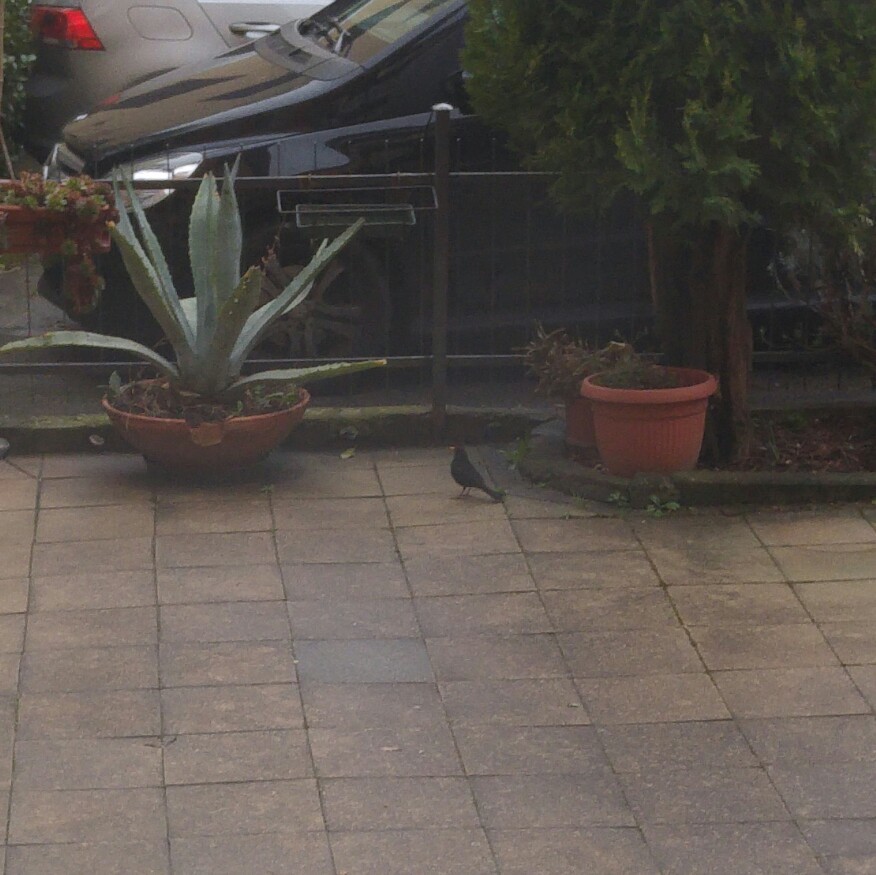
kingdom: Animalia
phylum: Chordata
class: Aves
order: Passeriformes
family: Turdidae
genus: Turdus
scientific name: Turdus merula
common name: Common blackbird
